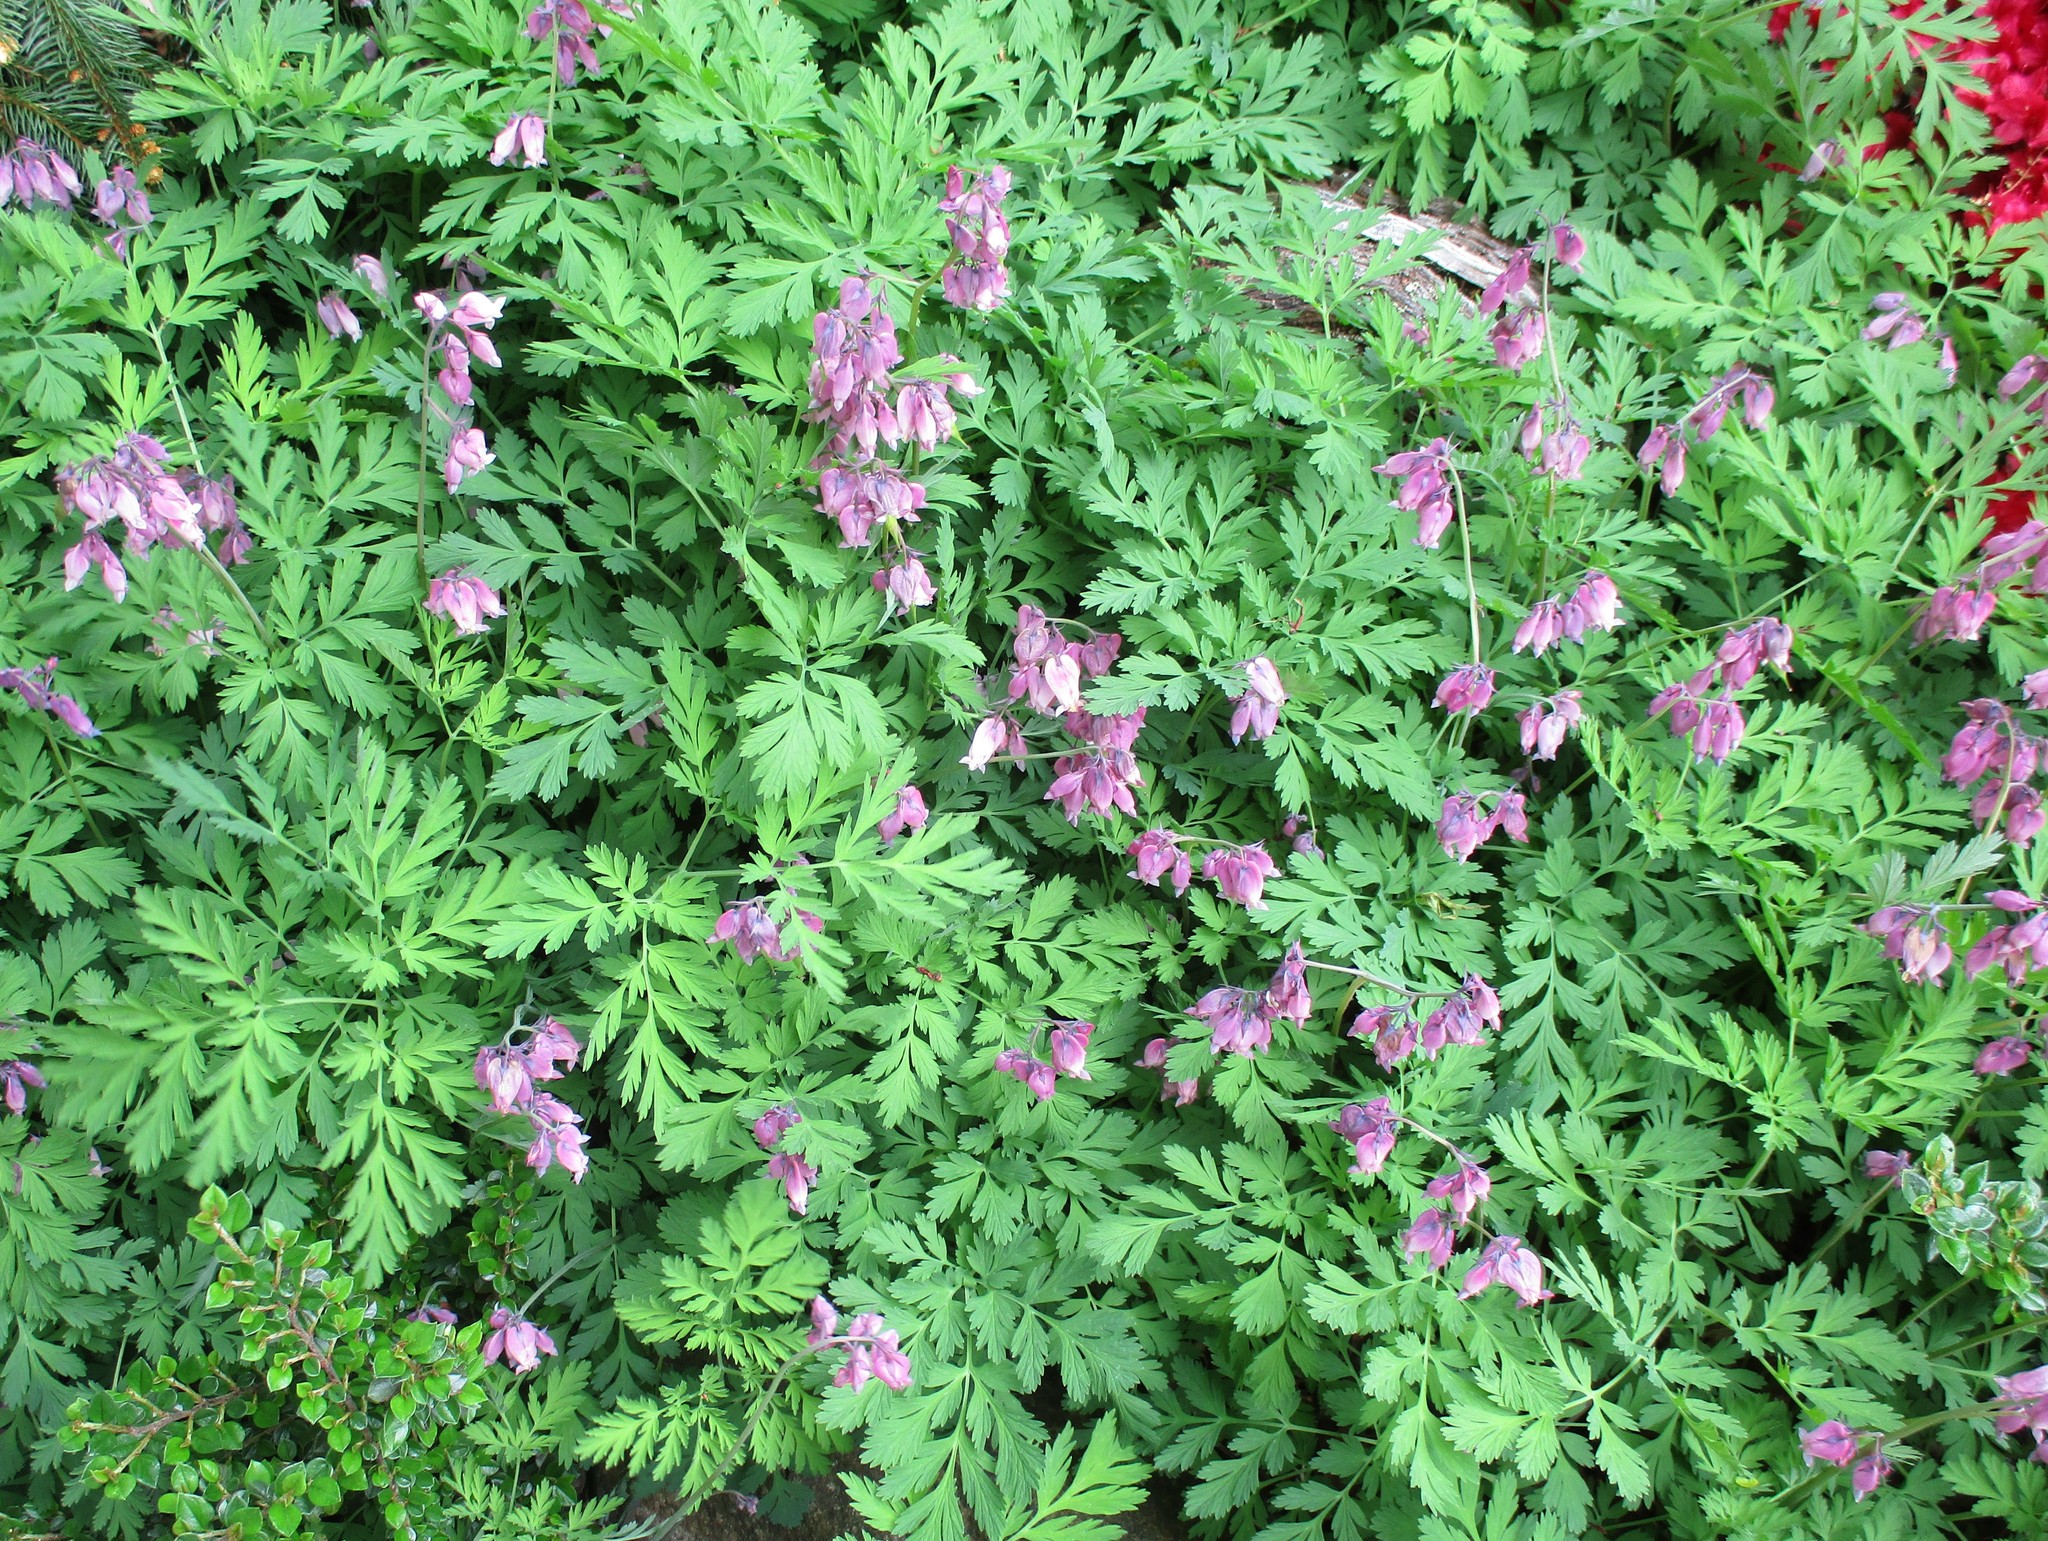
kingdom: Plantae
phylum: Tracheophyta
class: Magnoliopsida
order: Ranunculales
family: Papaveraceae
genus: Dicentra
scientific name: Dicentra formosa
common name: Bleeding-heart
